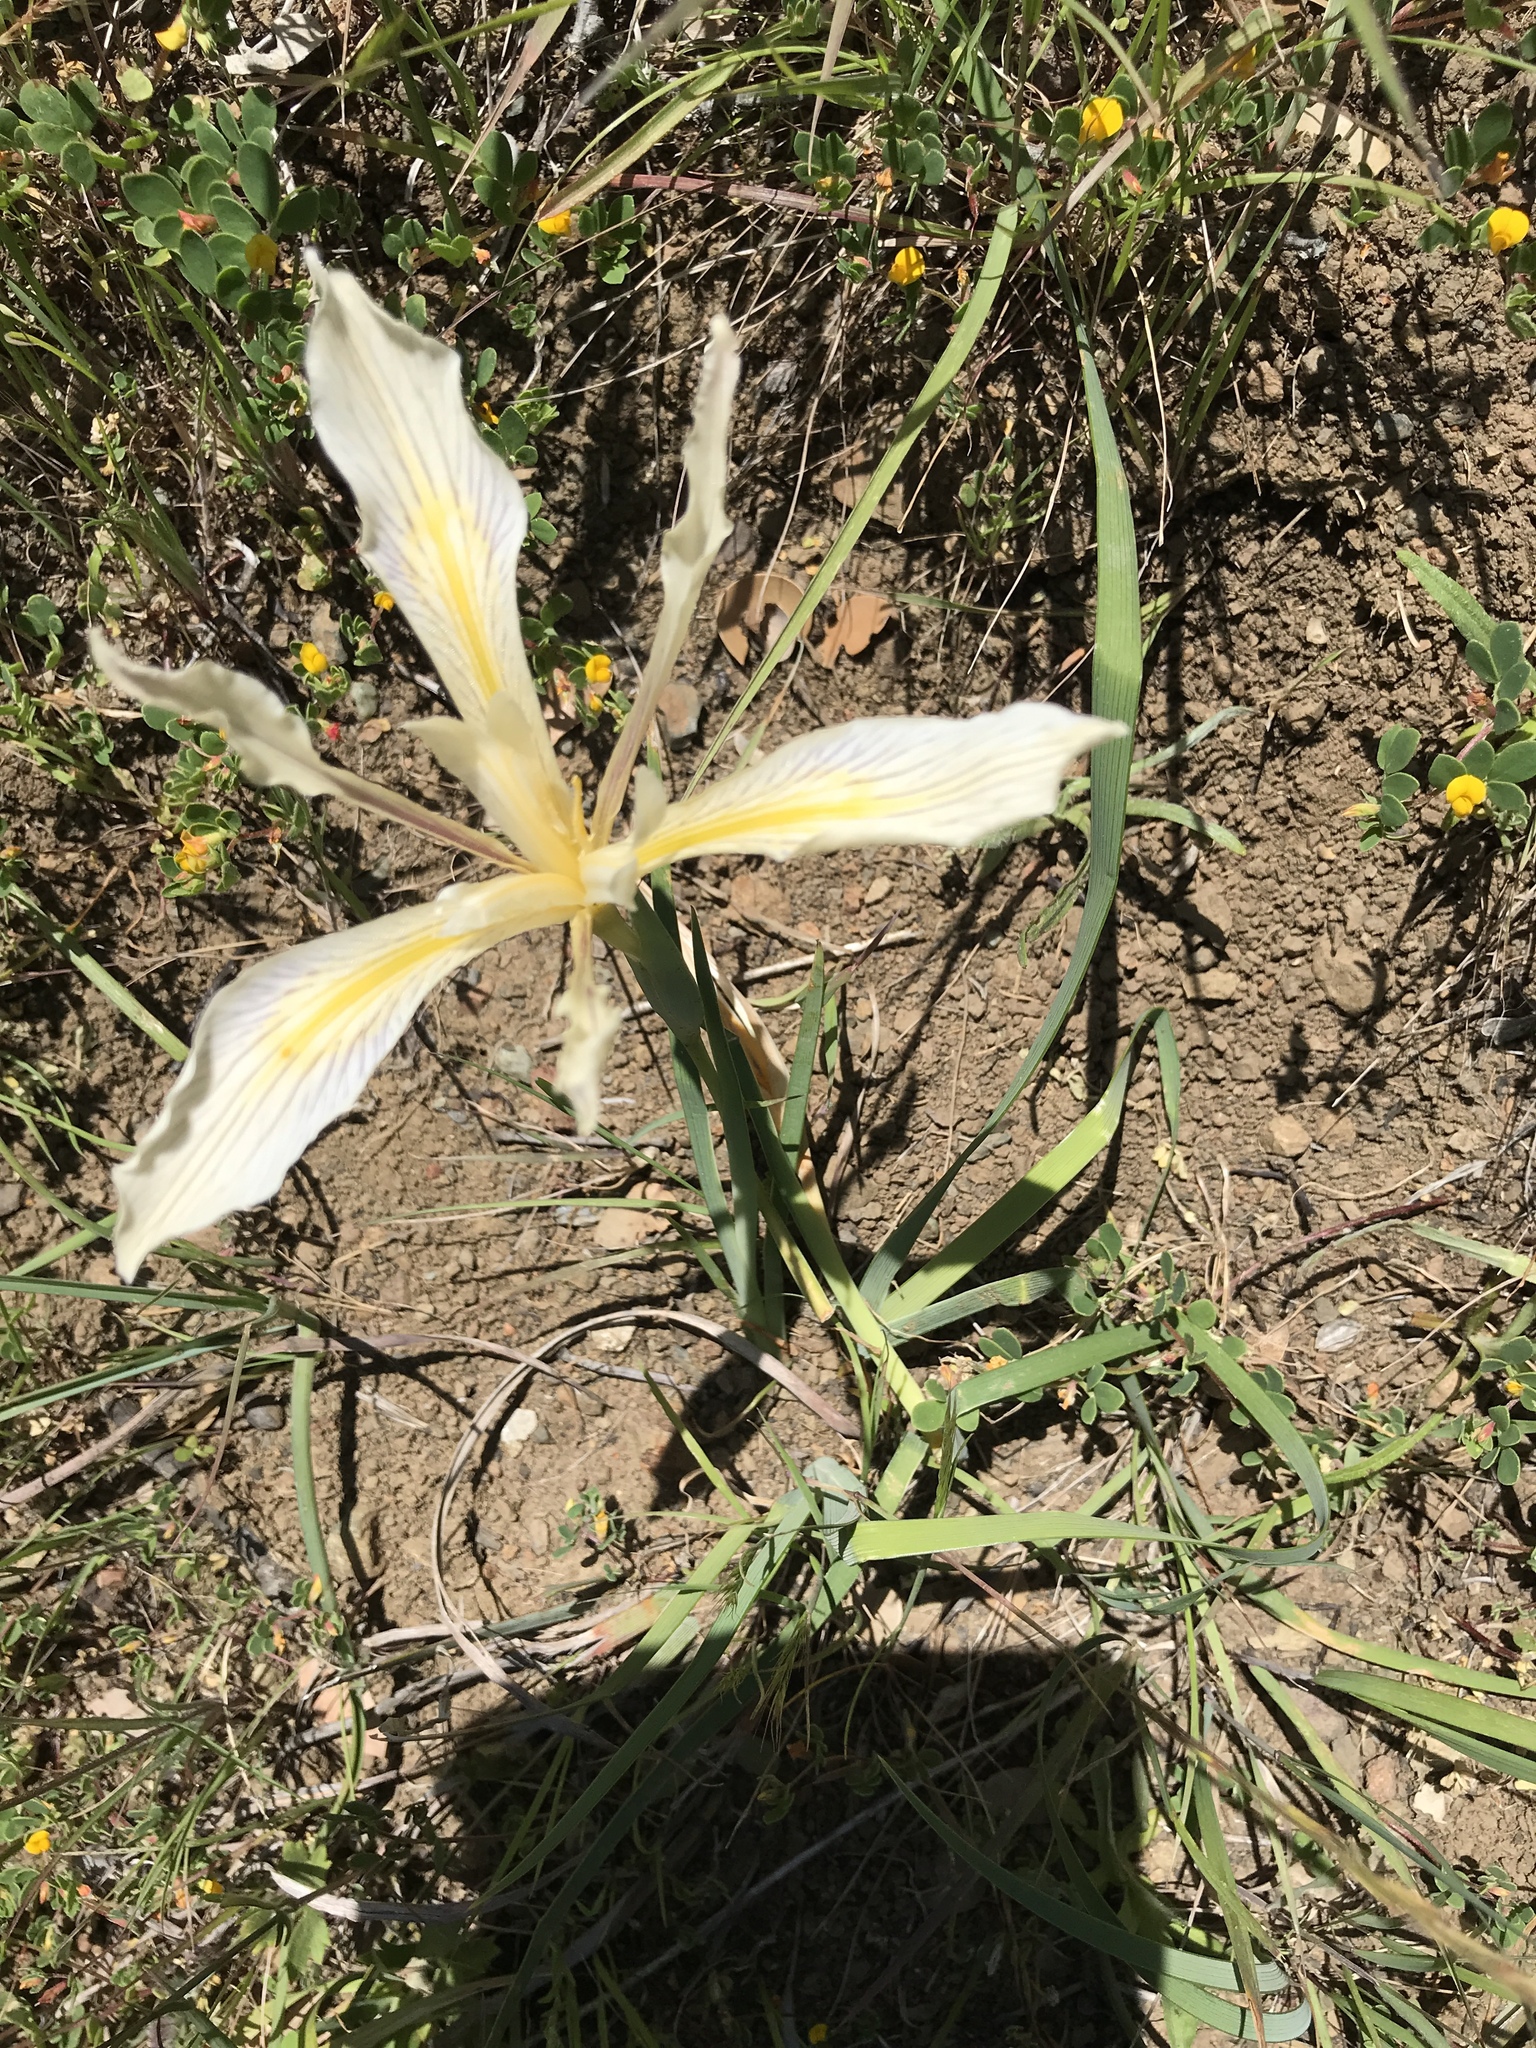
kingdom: Plantae
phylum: Tracheophyta
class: Liliopsida
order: Asparagales
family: Iridaceae
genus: Iris
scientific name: Iris fernaldii
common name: Fernald's iris
